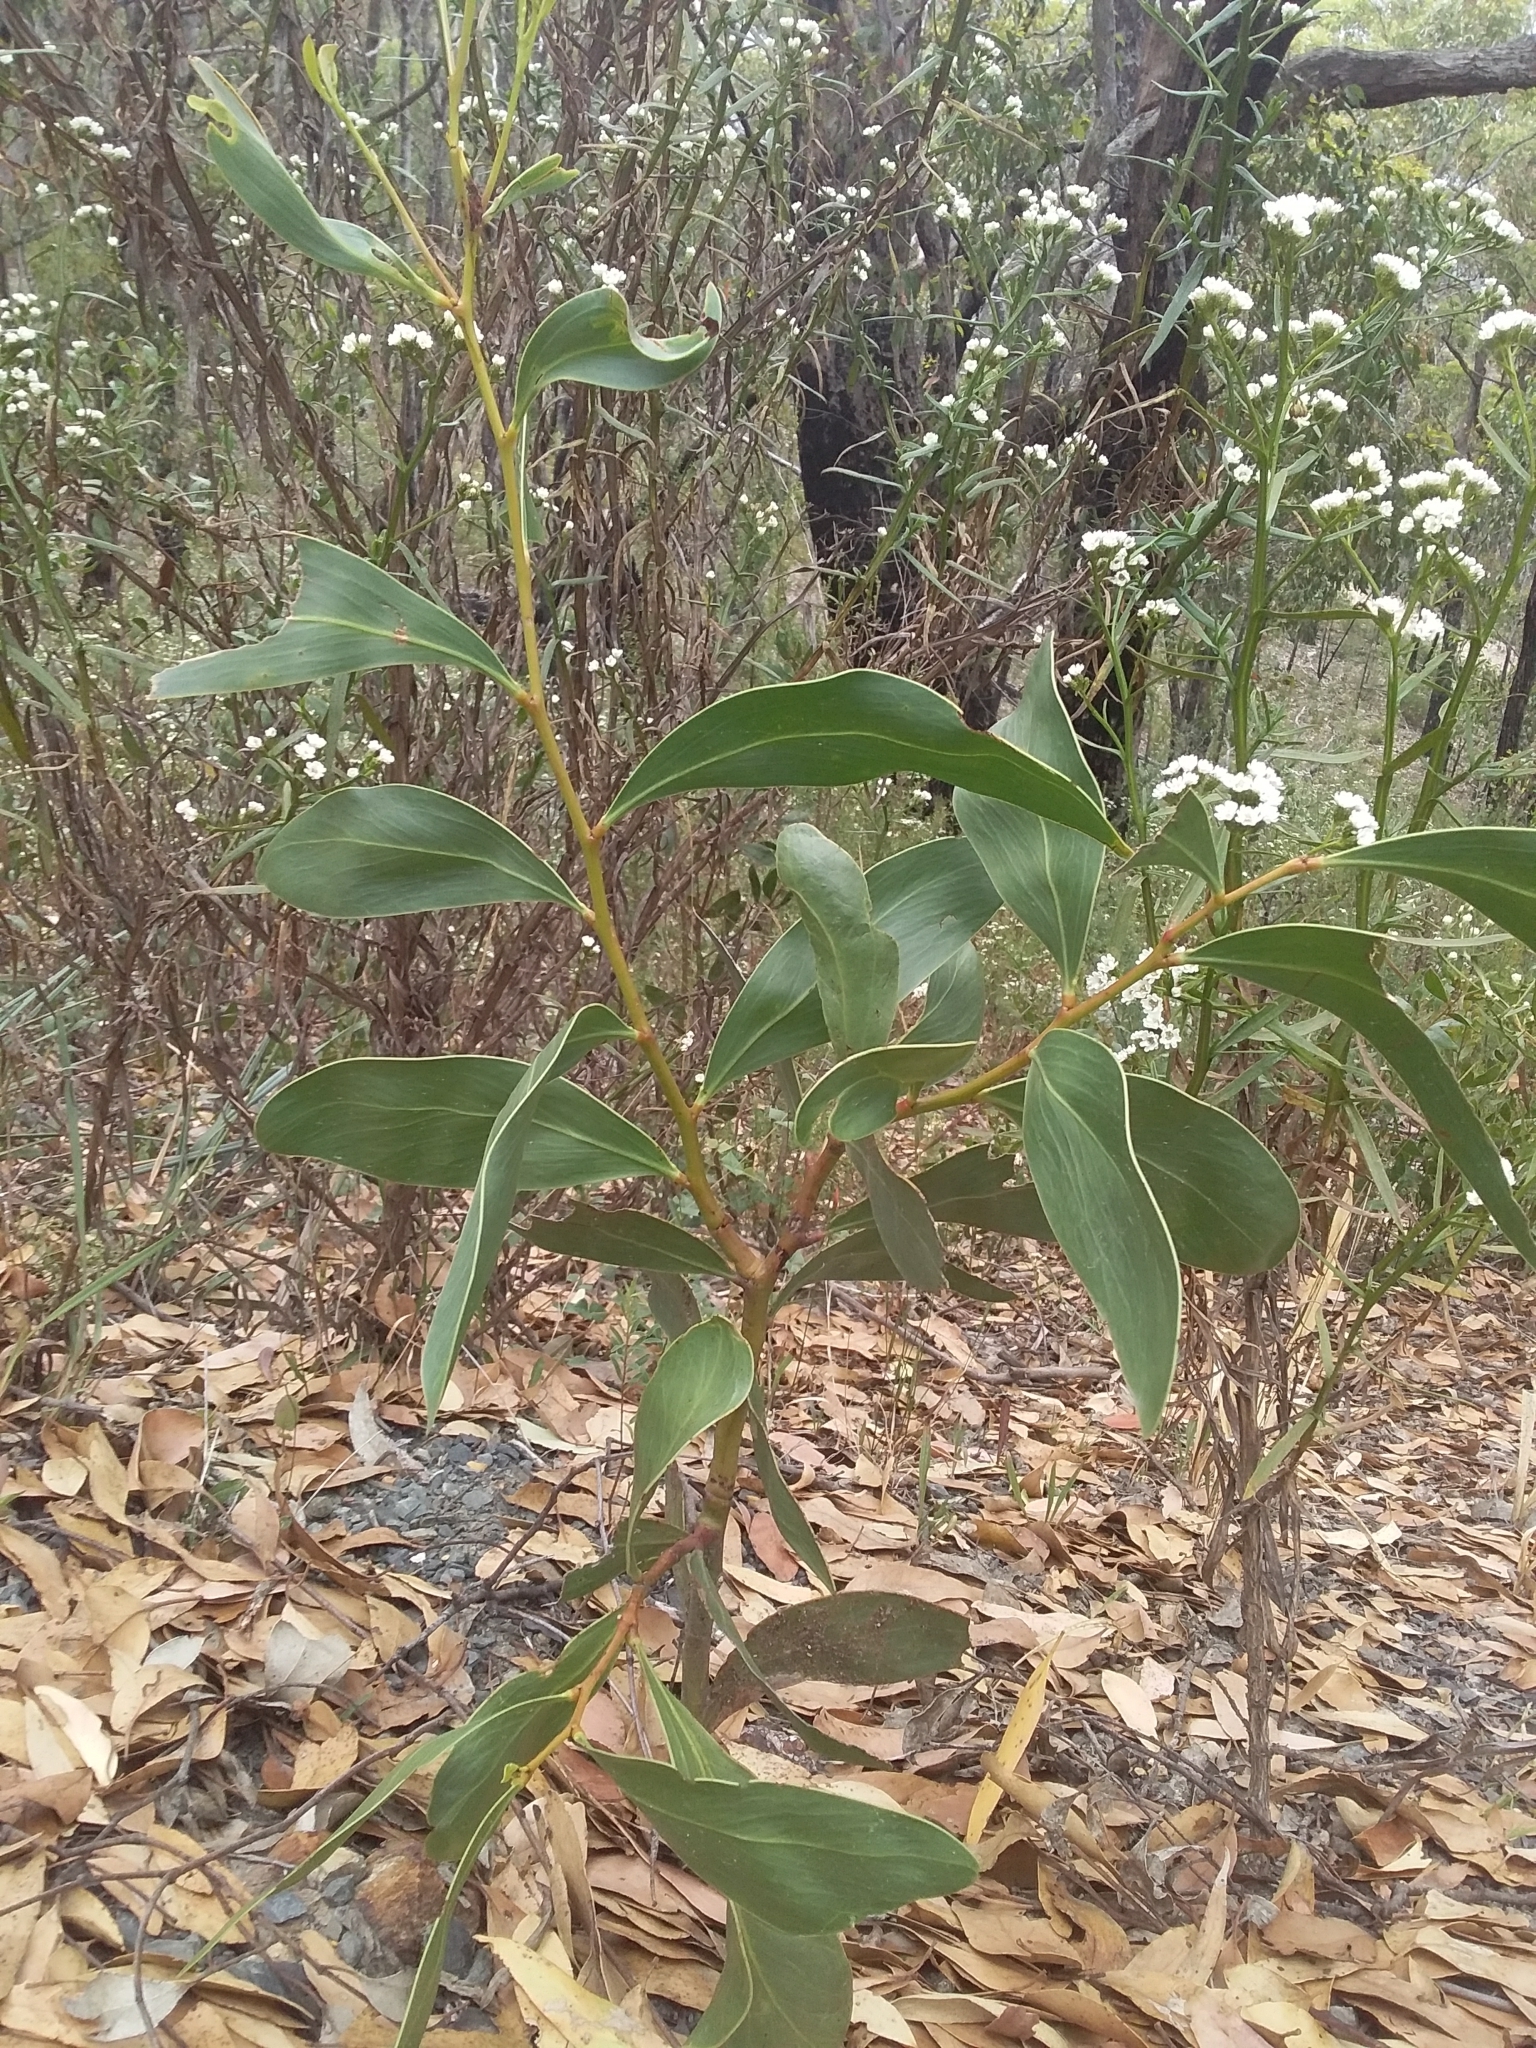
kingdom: Plantae
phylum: Tracheophyta
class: Magnoliopsida
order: Fabales
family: Fabaceae
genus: Acacia
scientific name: Acacia pycnantha
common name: Golden wattle
